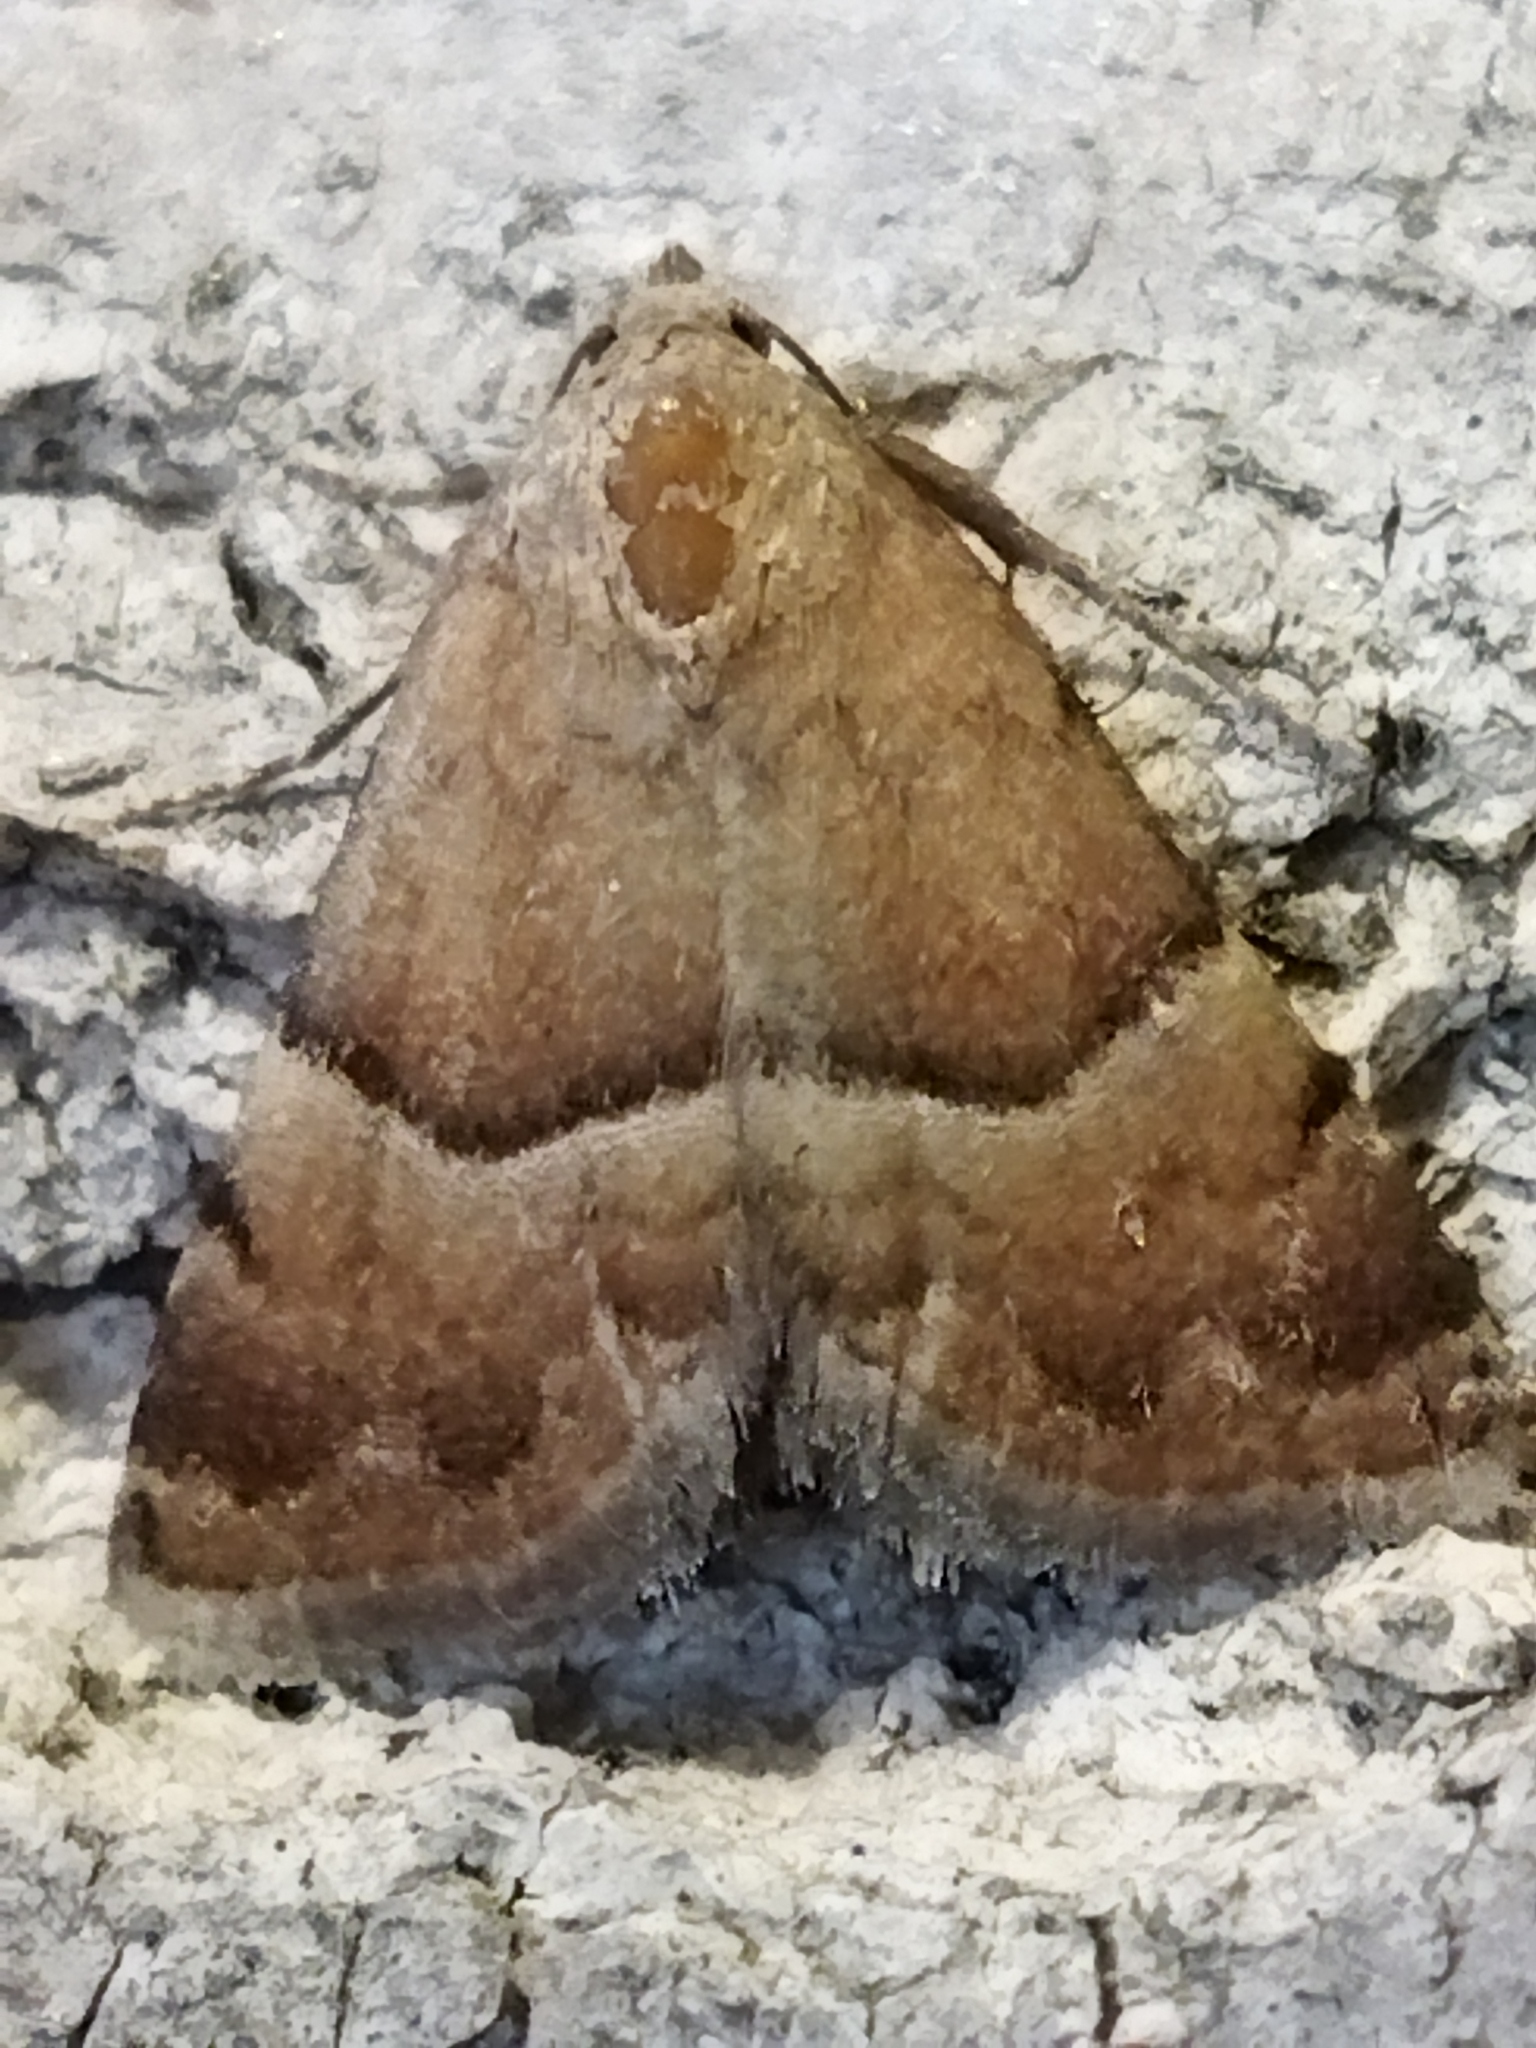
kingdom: Animalia
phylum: Arthropoda
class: Insecta
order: Lepidoptera
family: Noctuidae
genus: Odice
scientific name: Odice suava
